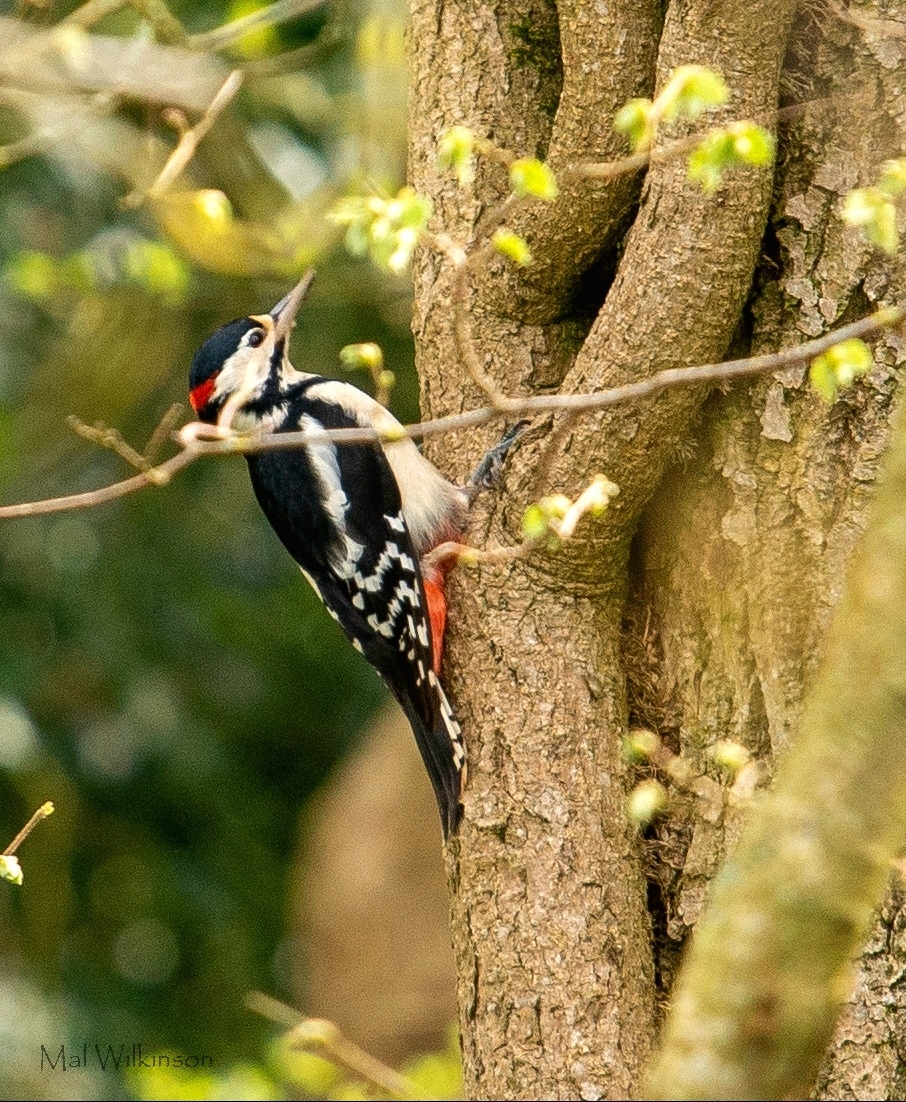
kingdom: Animalia
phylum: Chordata
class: Aves
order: Piciformes
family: Picidae
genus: Dendrocopos
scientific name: Dendrocopos major
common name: Great spotted woodpecker
